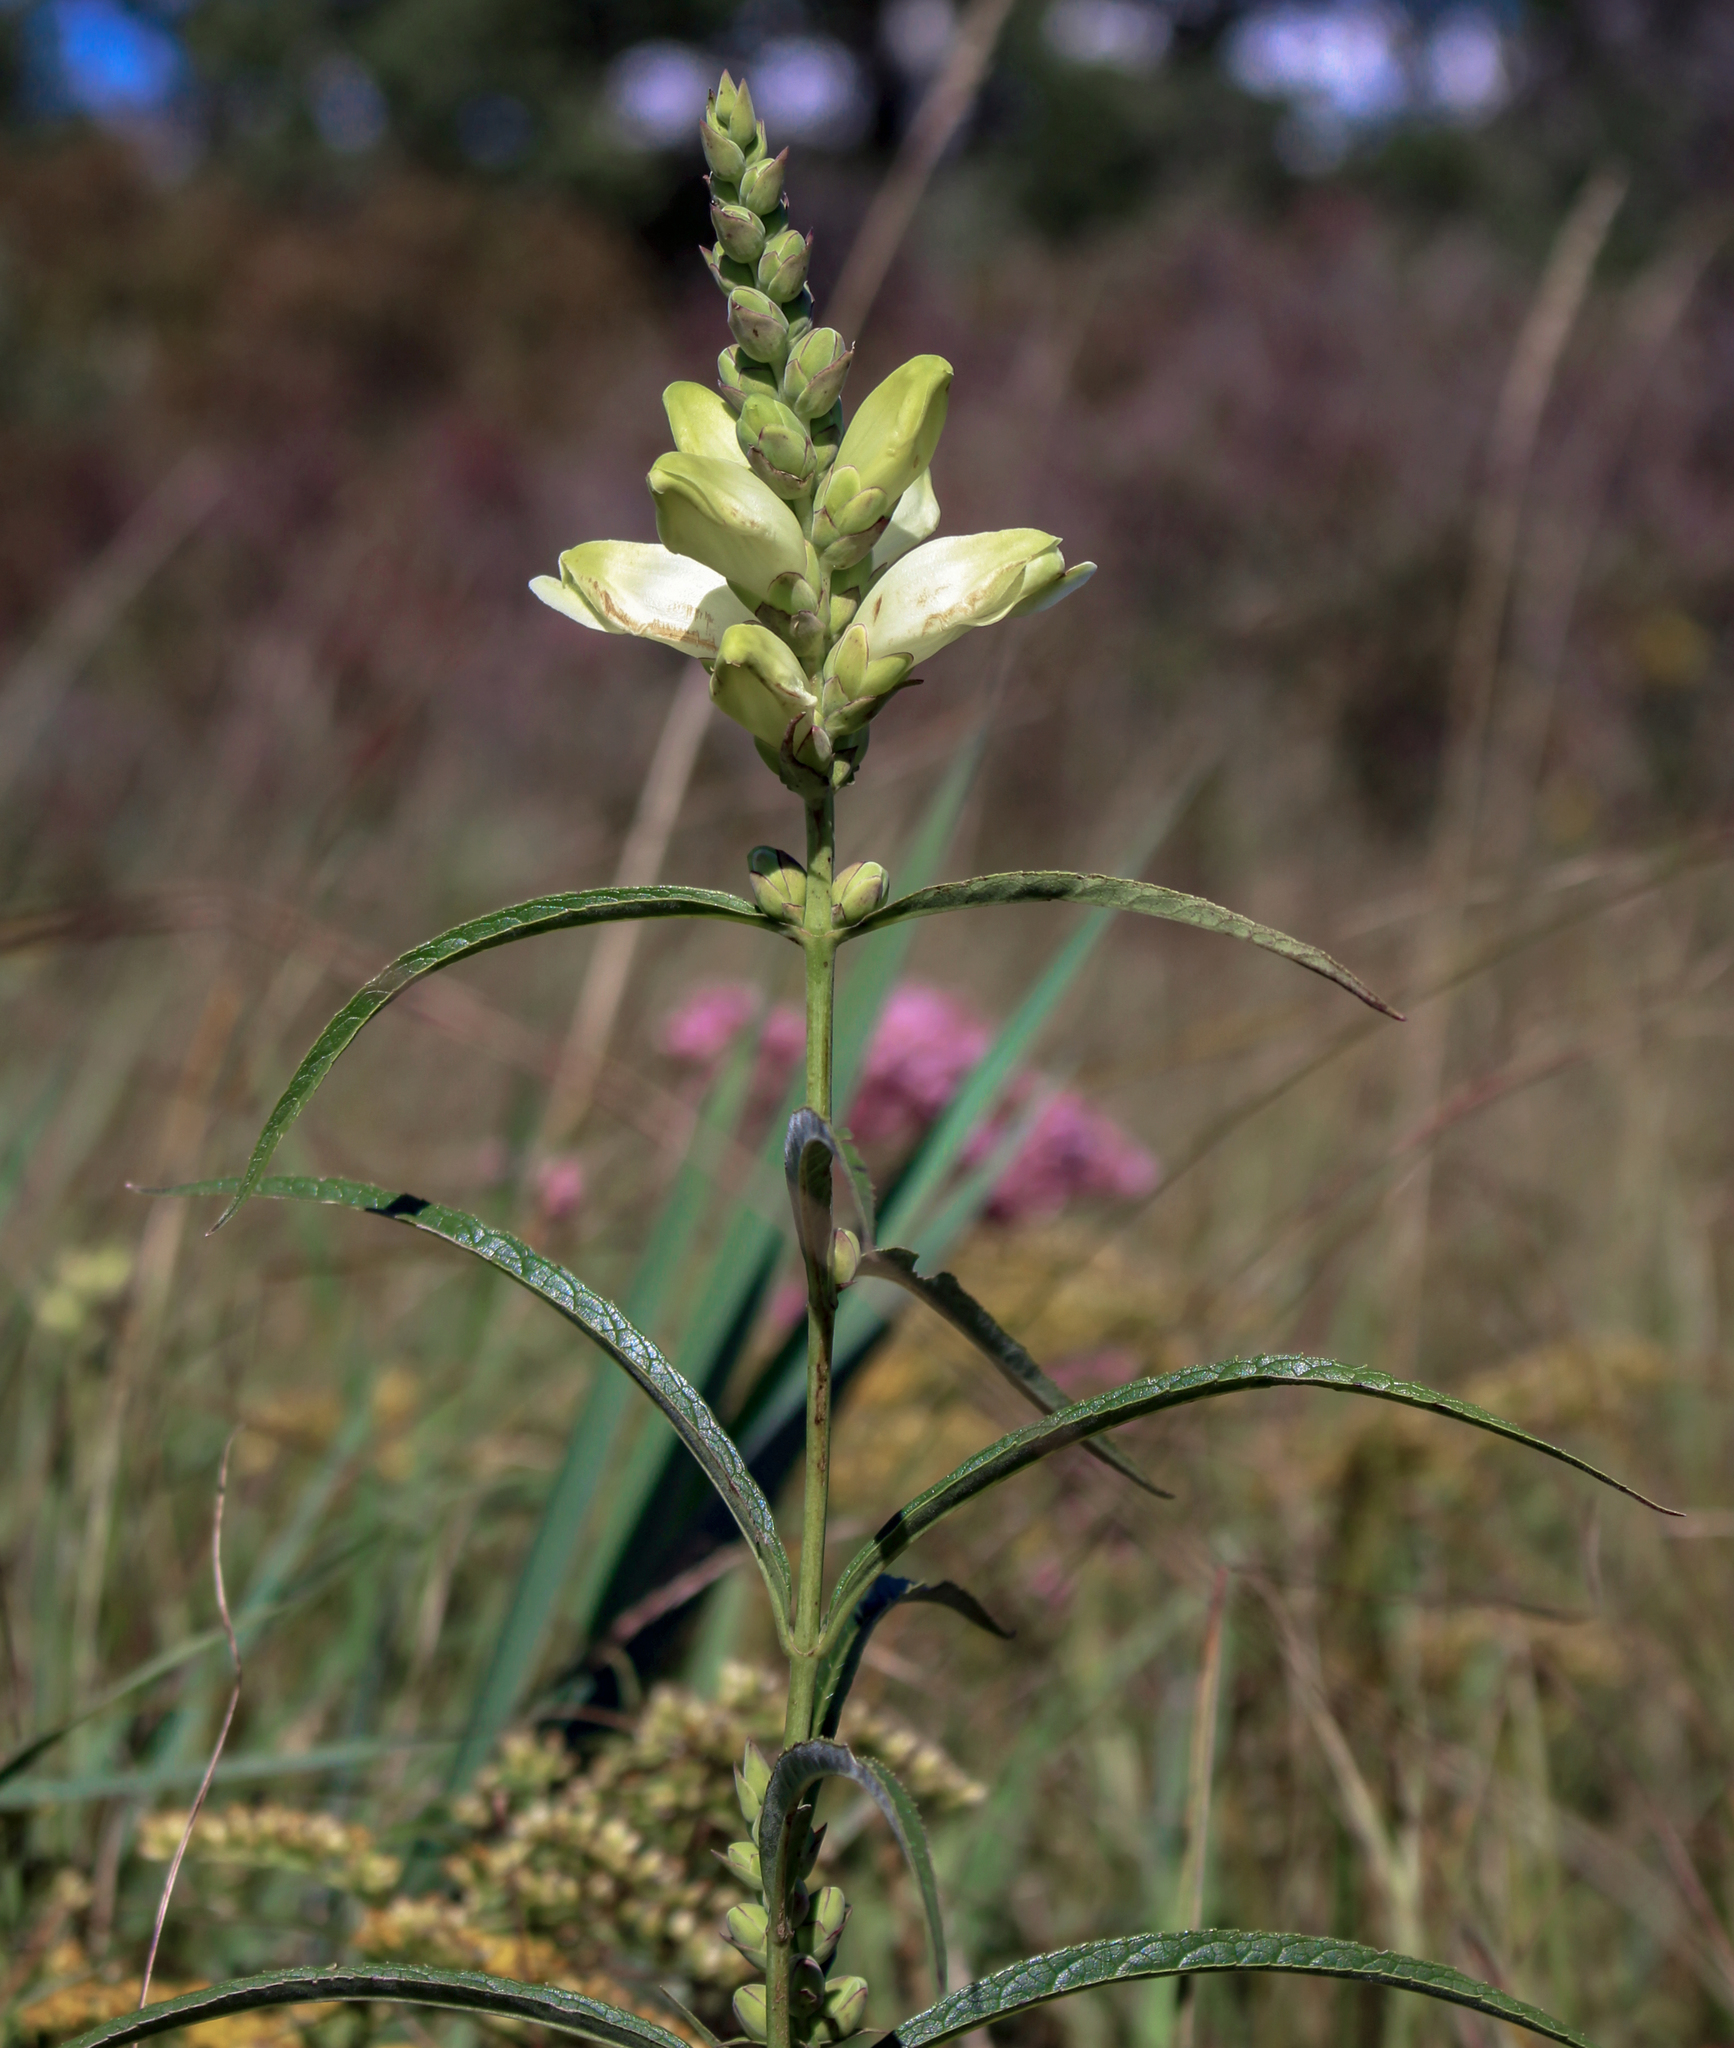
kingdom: Plantae
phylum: Tracheophyta
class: Magnoliopsida
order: Lamiales
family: Plantaginaceae
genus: Chelone
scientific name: Chelone glabra
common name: Snakehead
